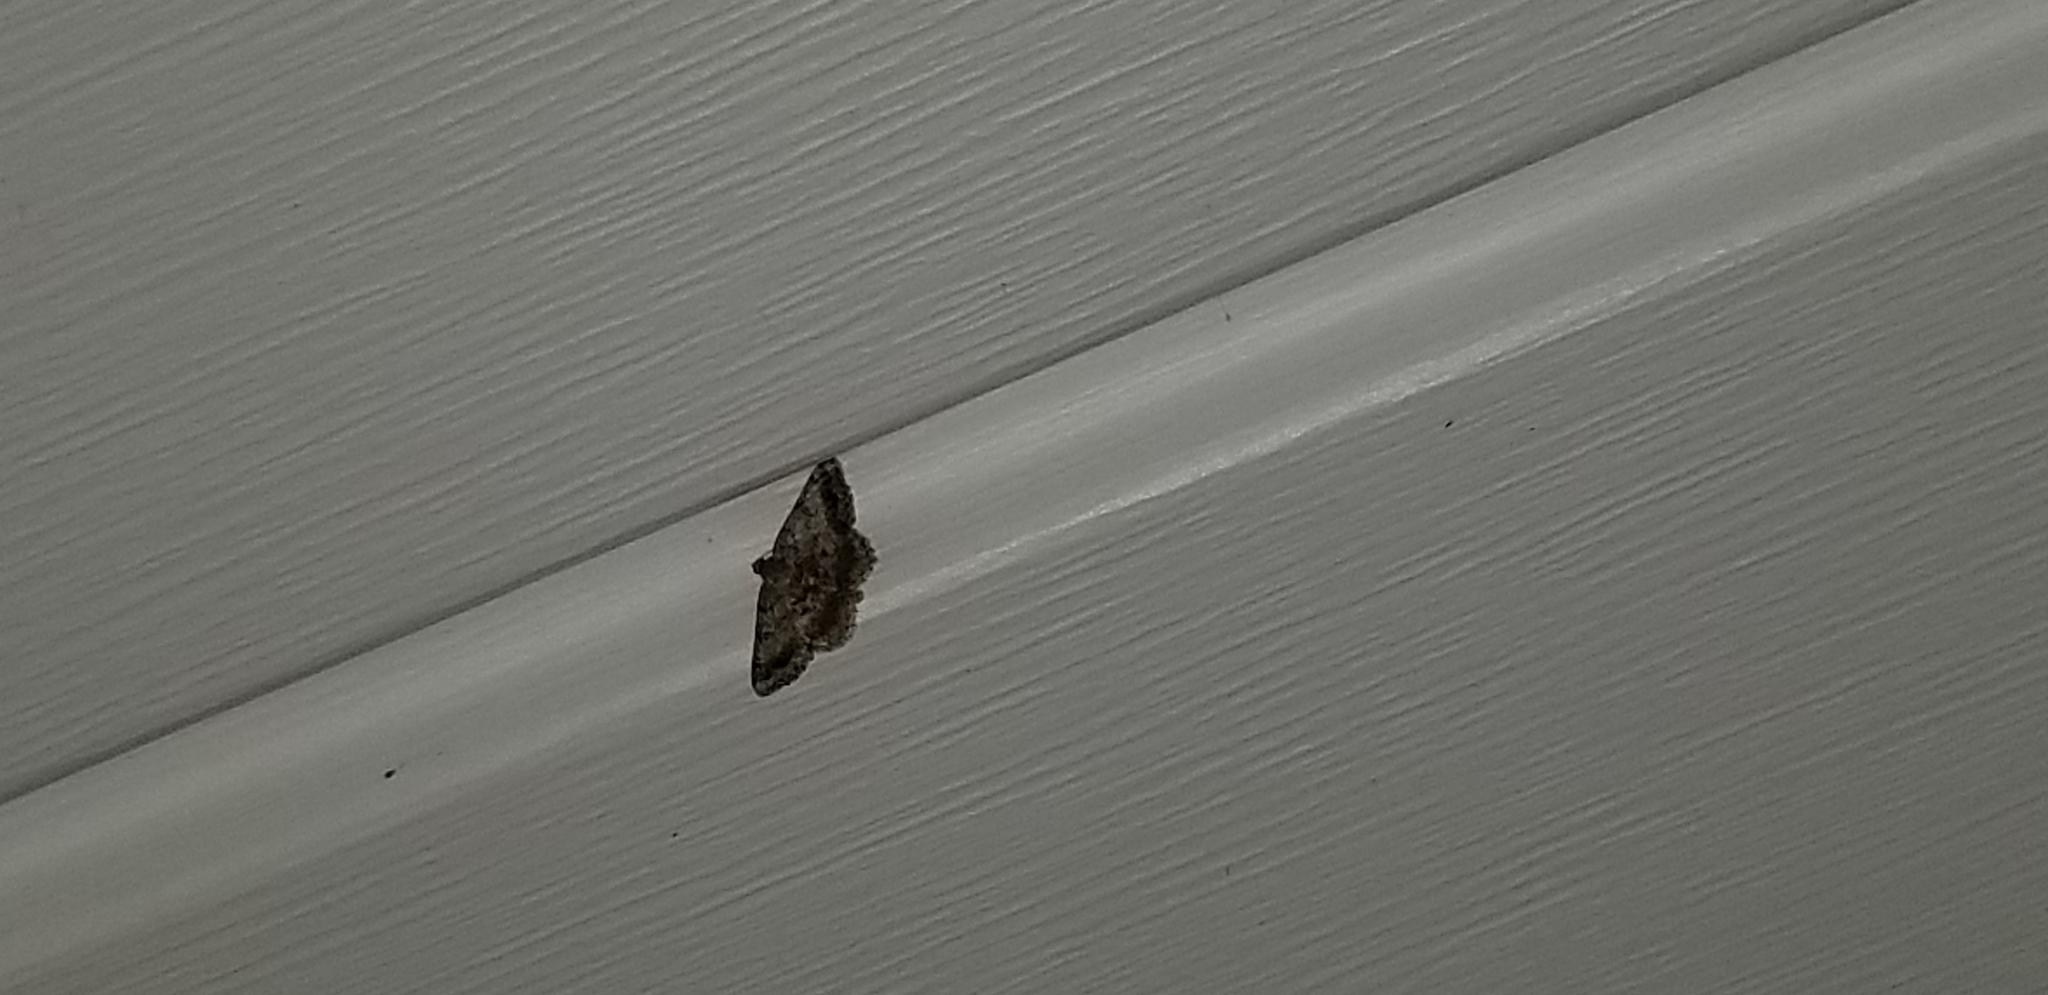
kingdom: Animalia
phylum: Arthropoda
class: Insecta
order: Lepidoptera
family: Geometridae
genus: Digrammia
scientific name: Digrammia ocellinata
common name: Faint-spotted angle
